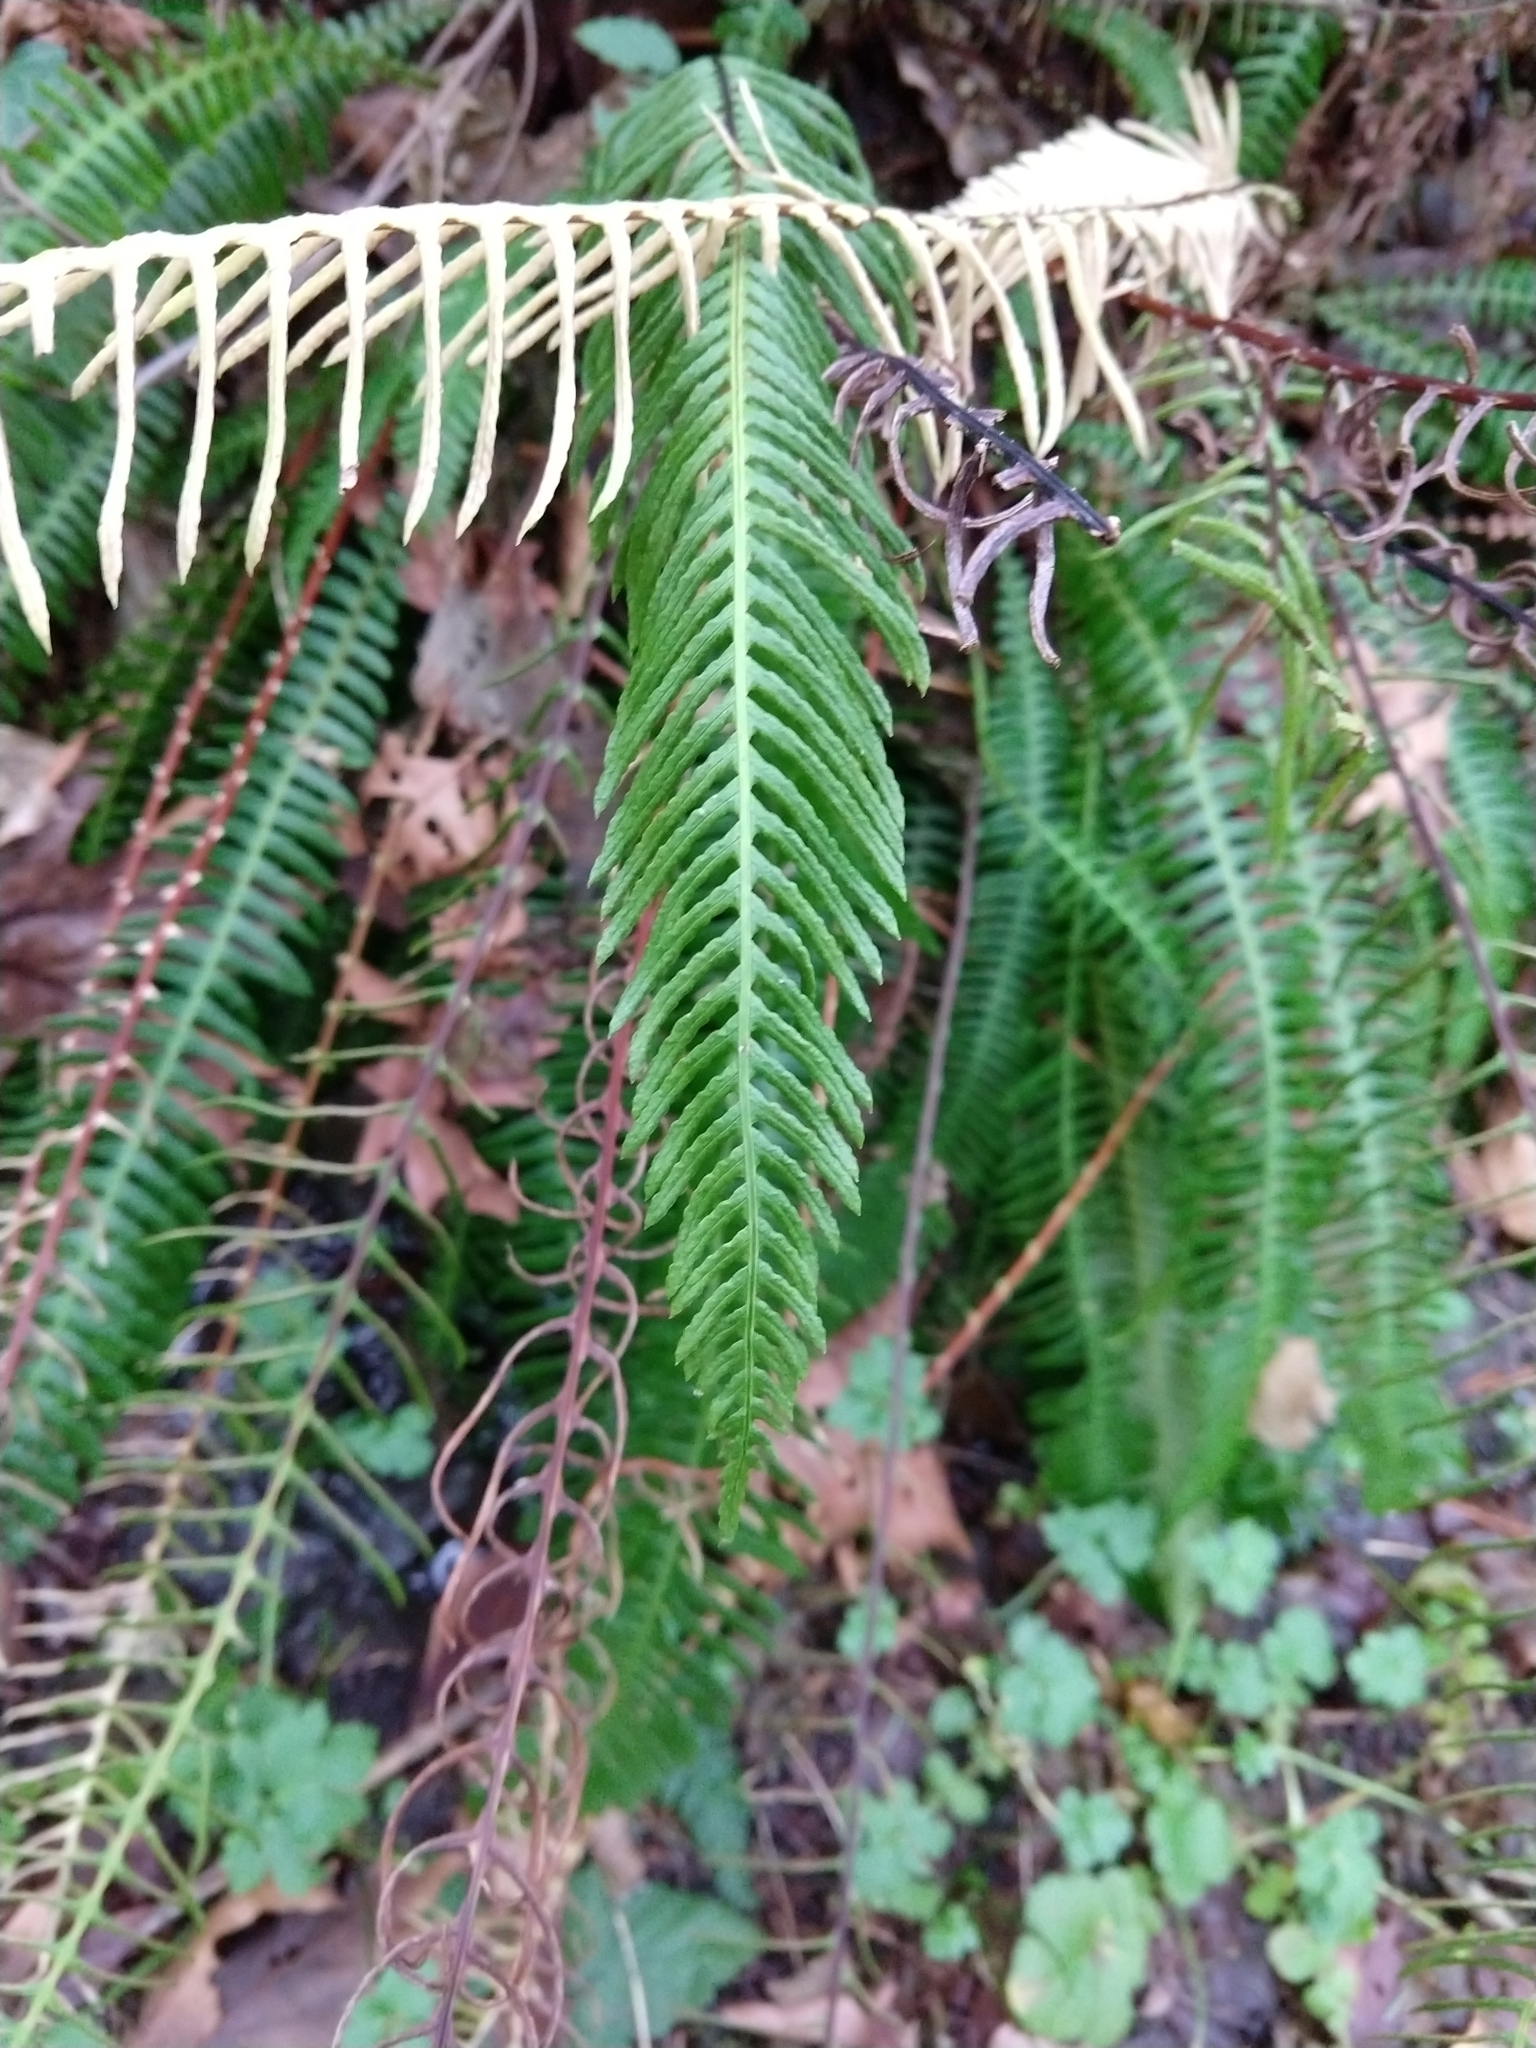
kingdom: Plantae
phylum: Tracheophyta
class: Polypodiopsida
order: Polypodiales
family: Blechnaceae
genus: Struthiopteris
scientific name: Struthiopteris spicant
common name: Deer fern
